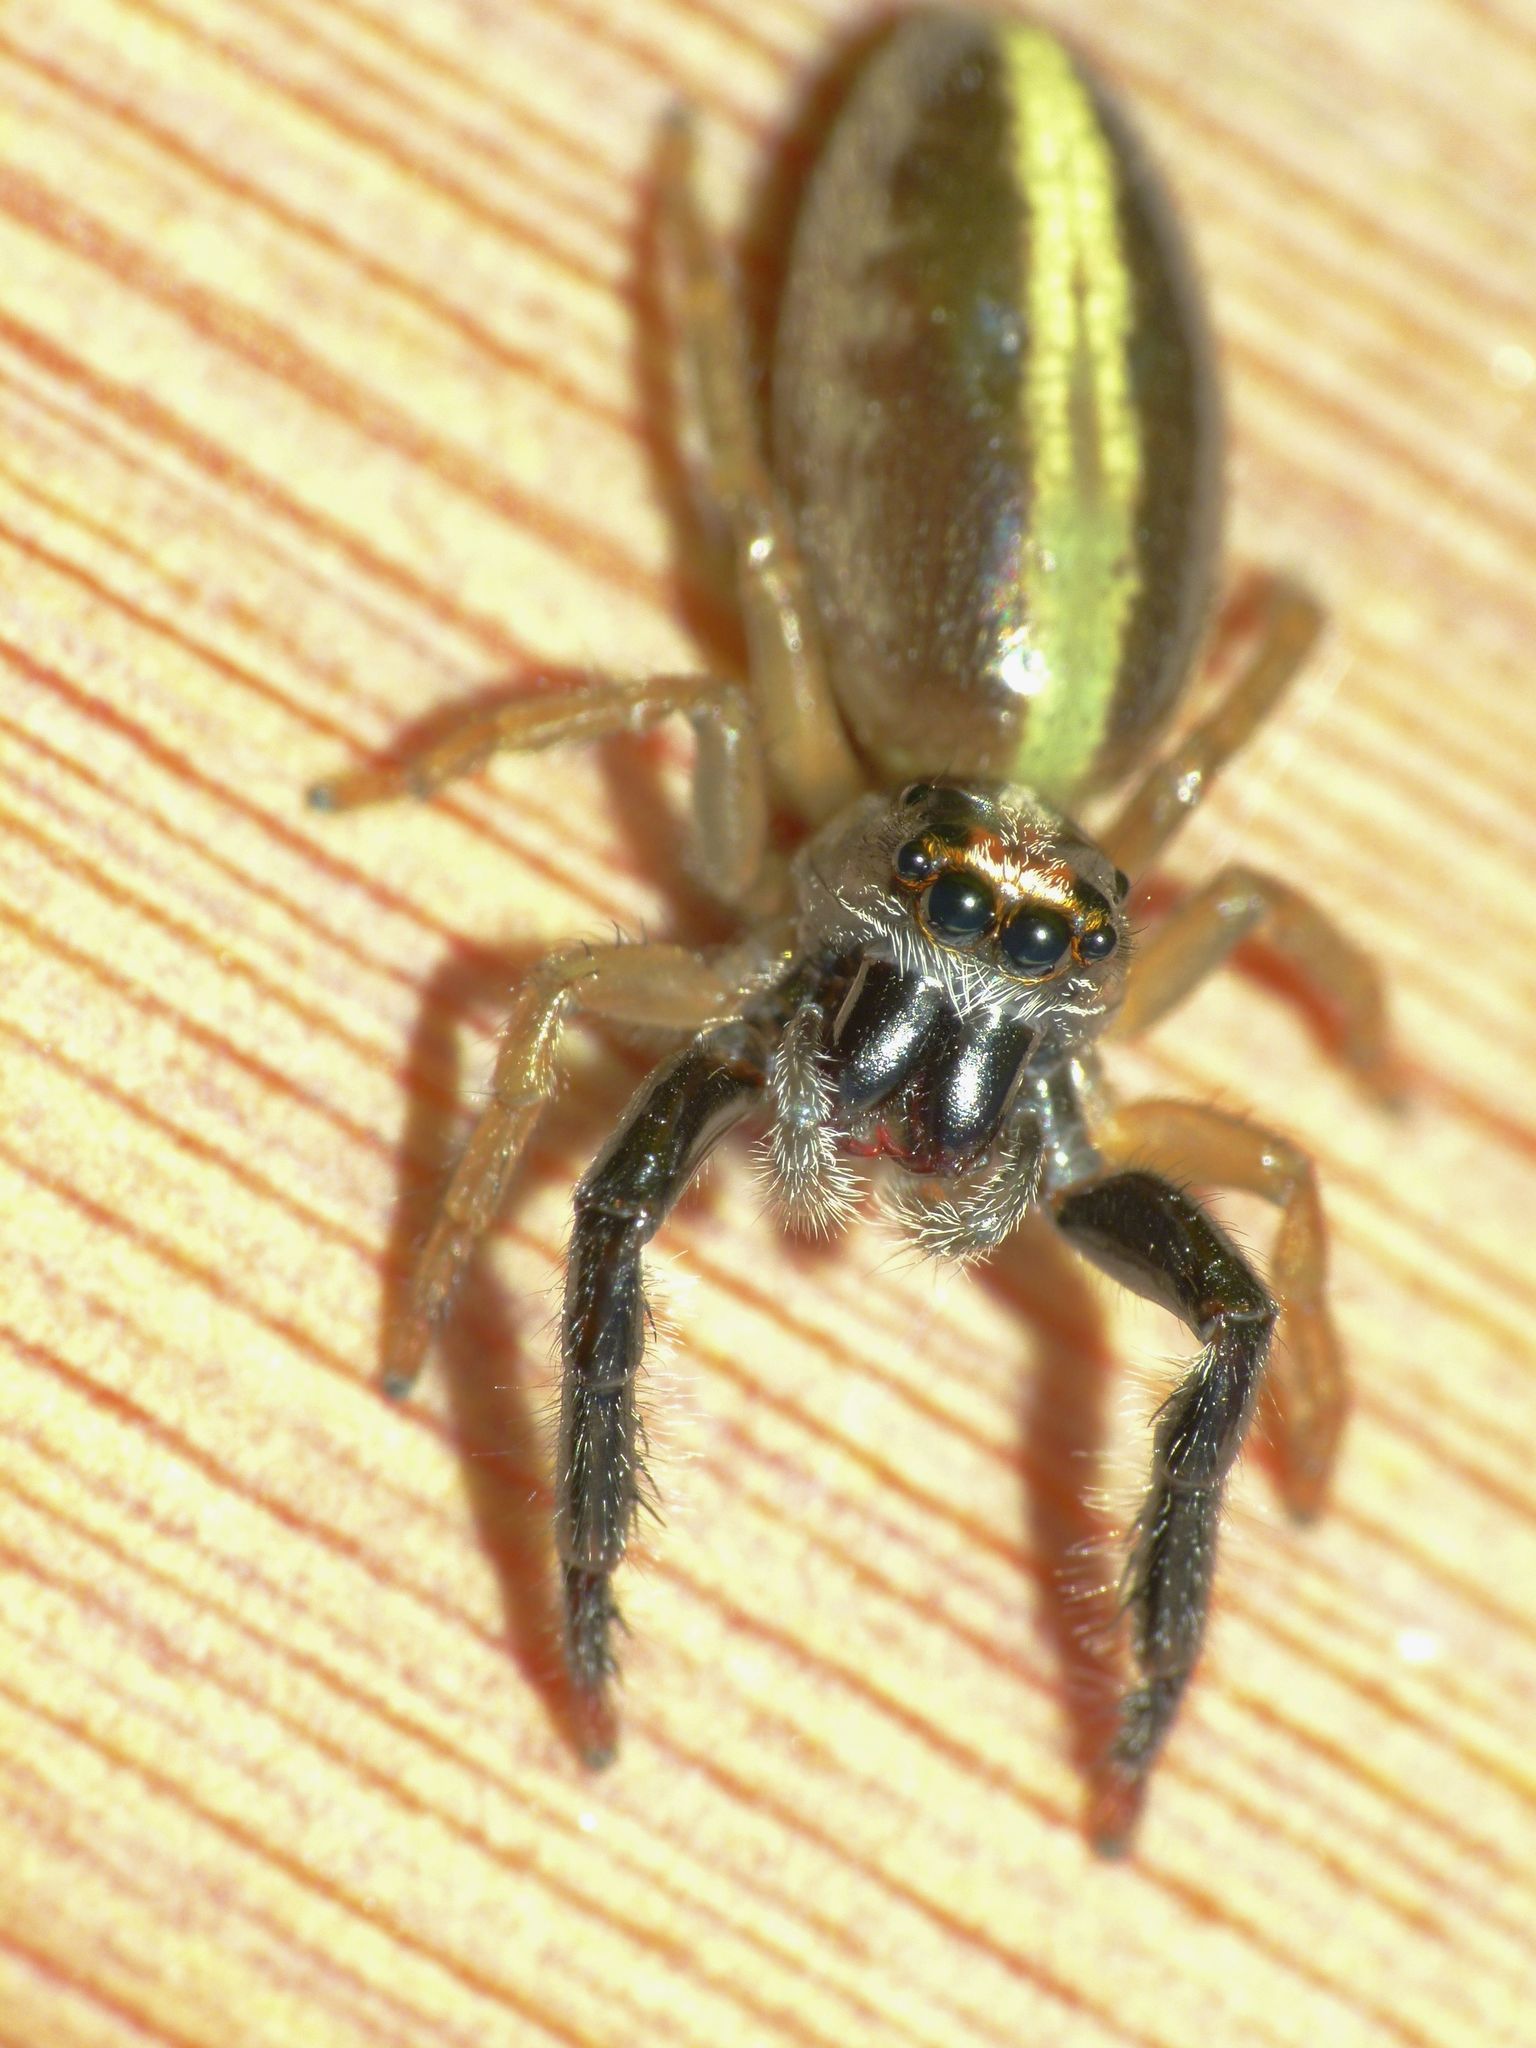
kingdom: Animalia
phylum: Arthropoda
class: Arachnida
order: Araneae
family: Salticidae
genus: Trite
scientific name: Trite planiceps
